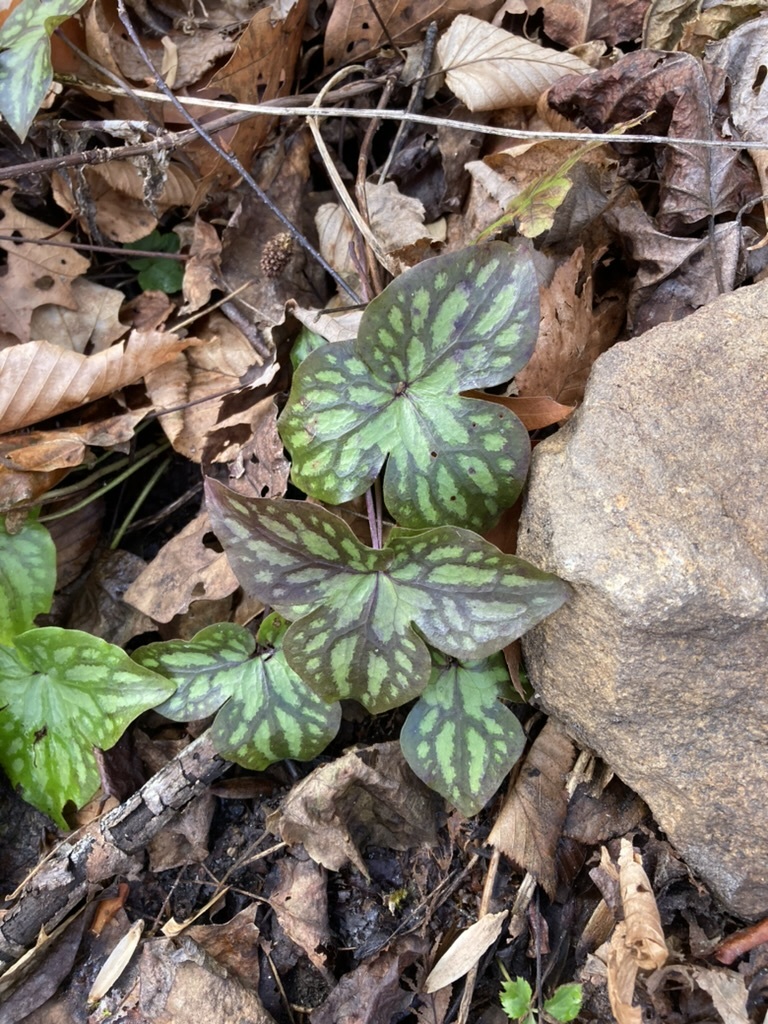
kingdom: Plantae
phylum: Tracheophyta
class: Magnoliopsida
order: Ranunculales
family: Ranunculaceae
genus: Hepatica
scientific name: Hepatica acutiloba
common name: Sharp-lobed hepatica
